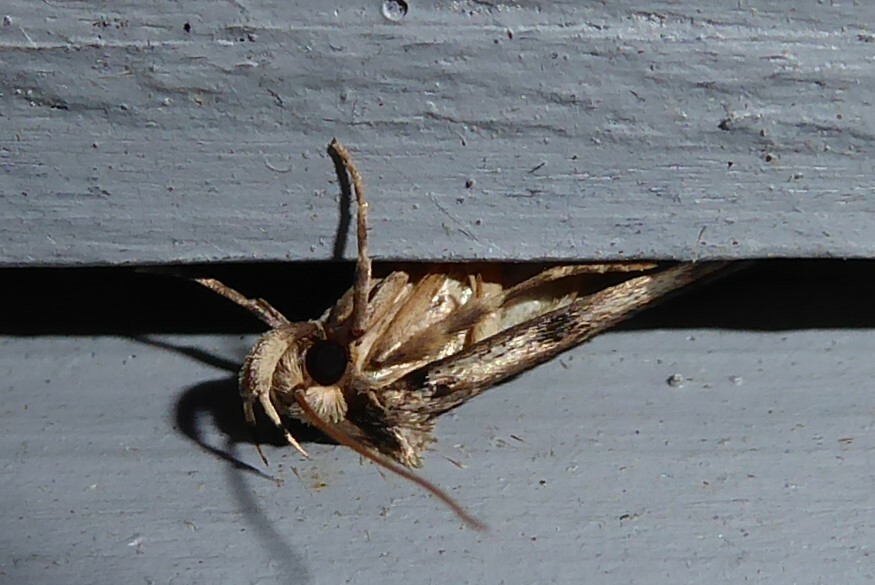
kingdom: Animalia
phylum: Arthropoda
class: Insecta
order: Lepidoptera
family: Oecophoridae
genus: Barea
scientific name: Barea exarcha
